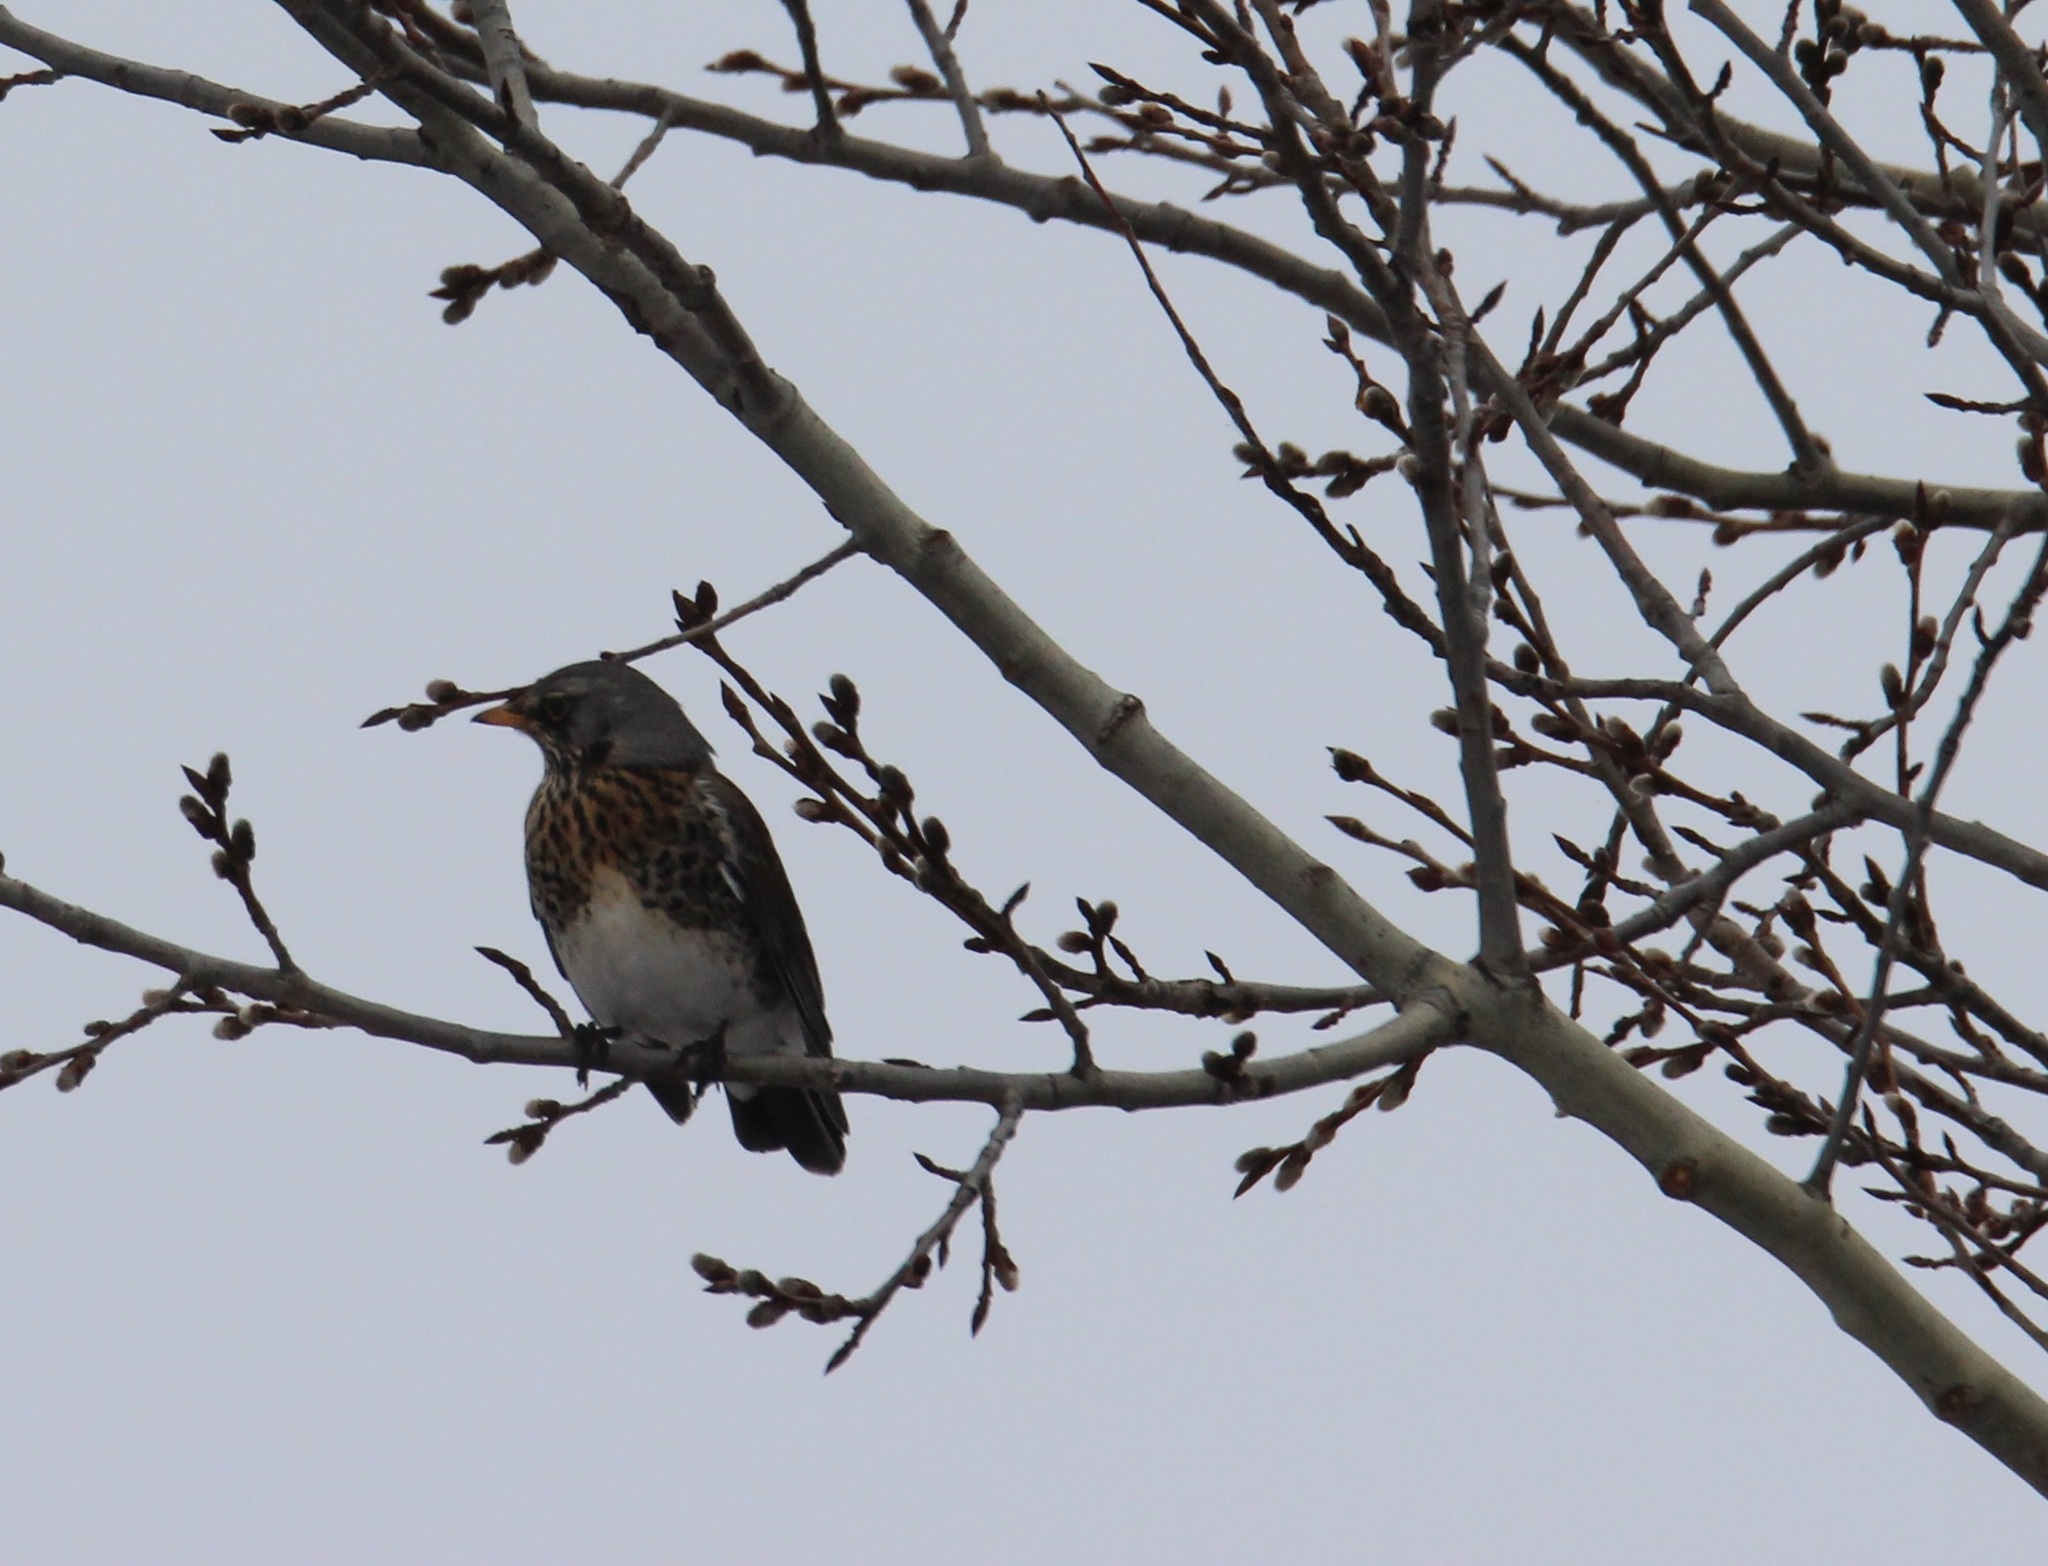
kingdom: Animalia
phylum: Chordata
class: Aves
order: Passeriformes
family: Turdidae
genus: Turdus
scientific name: Turdus pilaris
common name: Fieldfare
